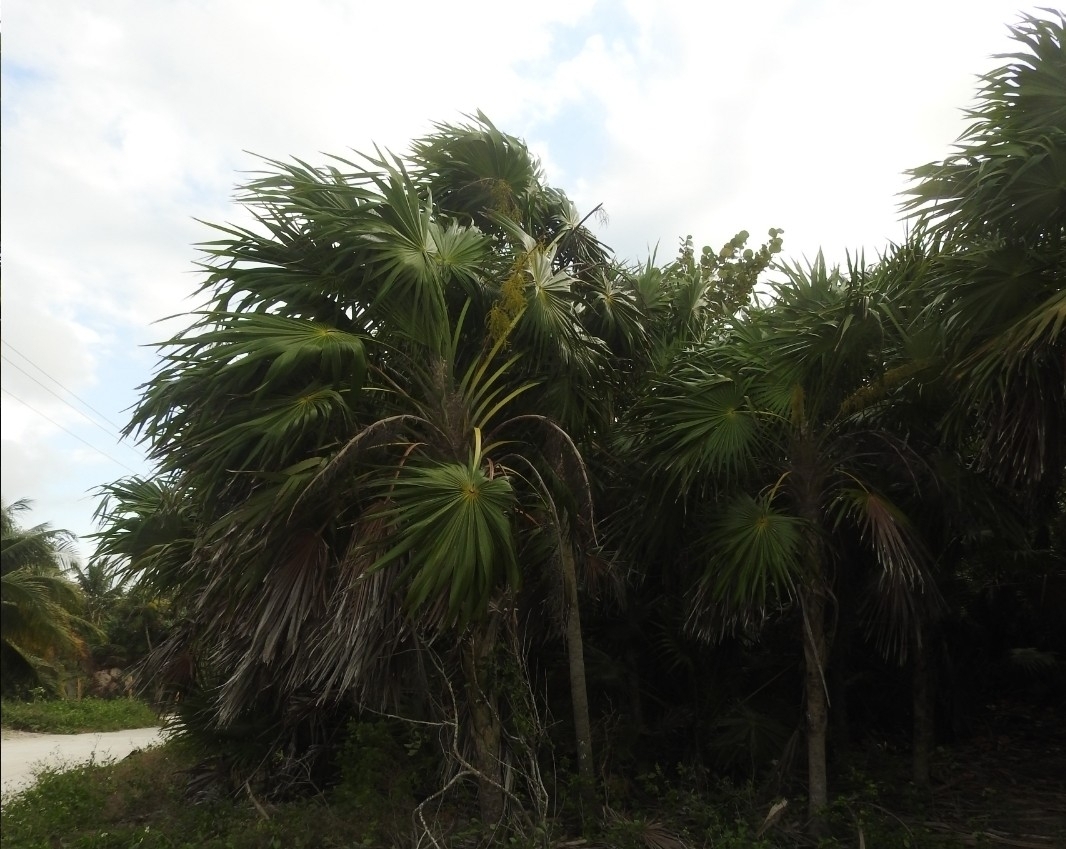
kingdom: Plantae
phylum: Tracheophyta
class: Liliopsida
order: Arecales
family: Arecaceae
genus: Thrinax
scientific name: Thrinax radiata
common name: Florida thatch
